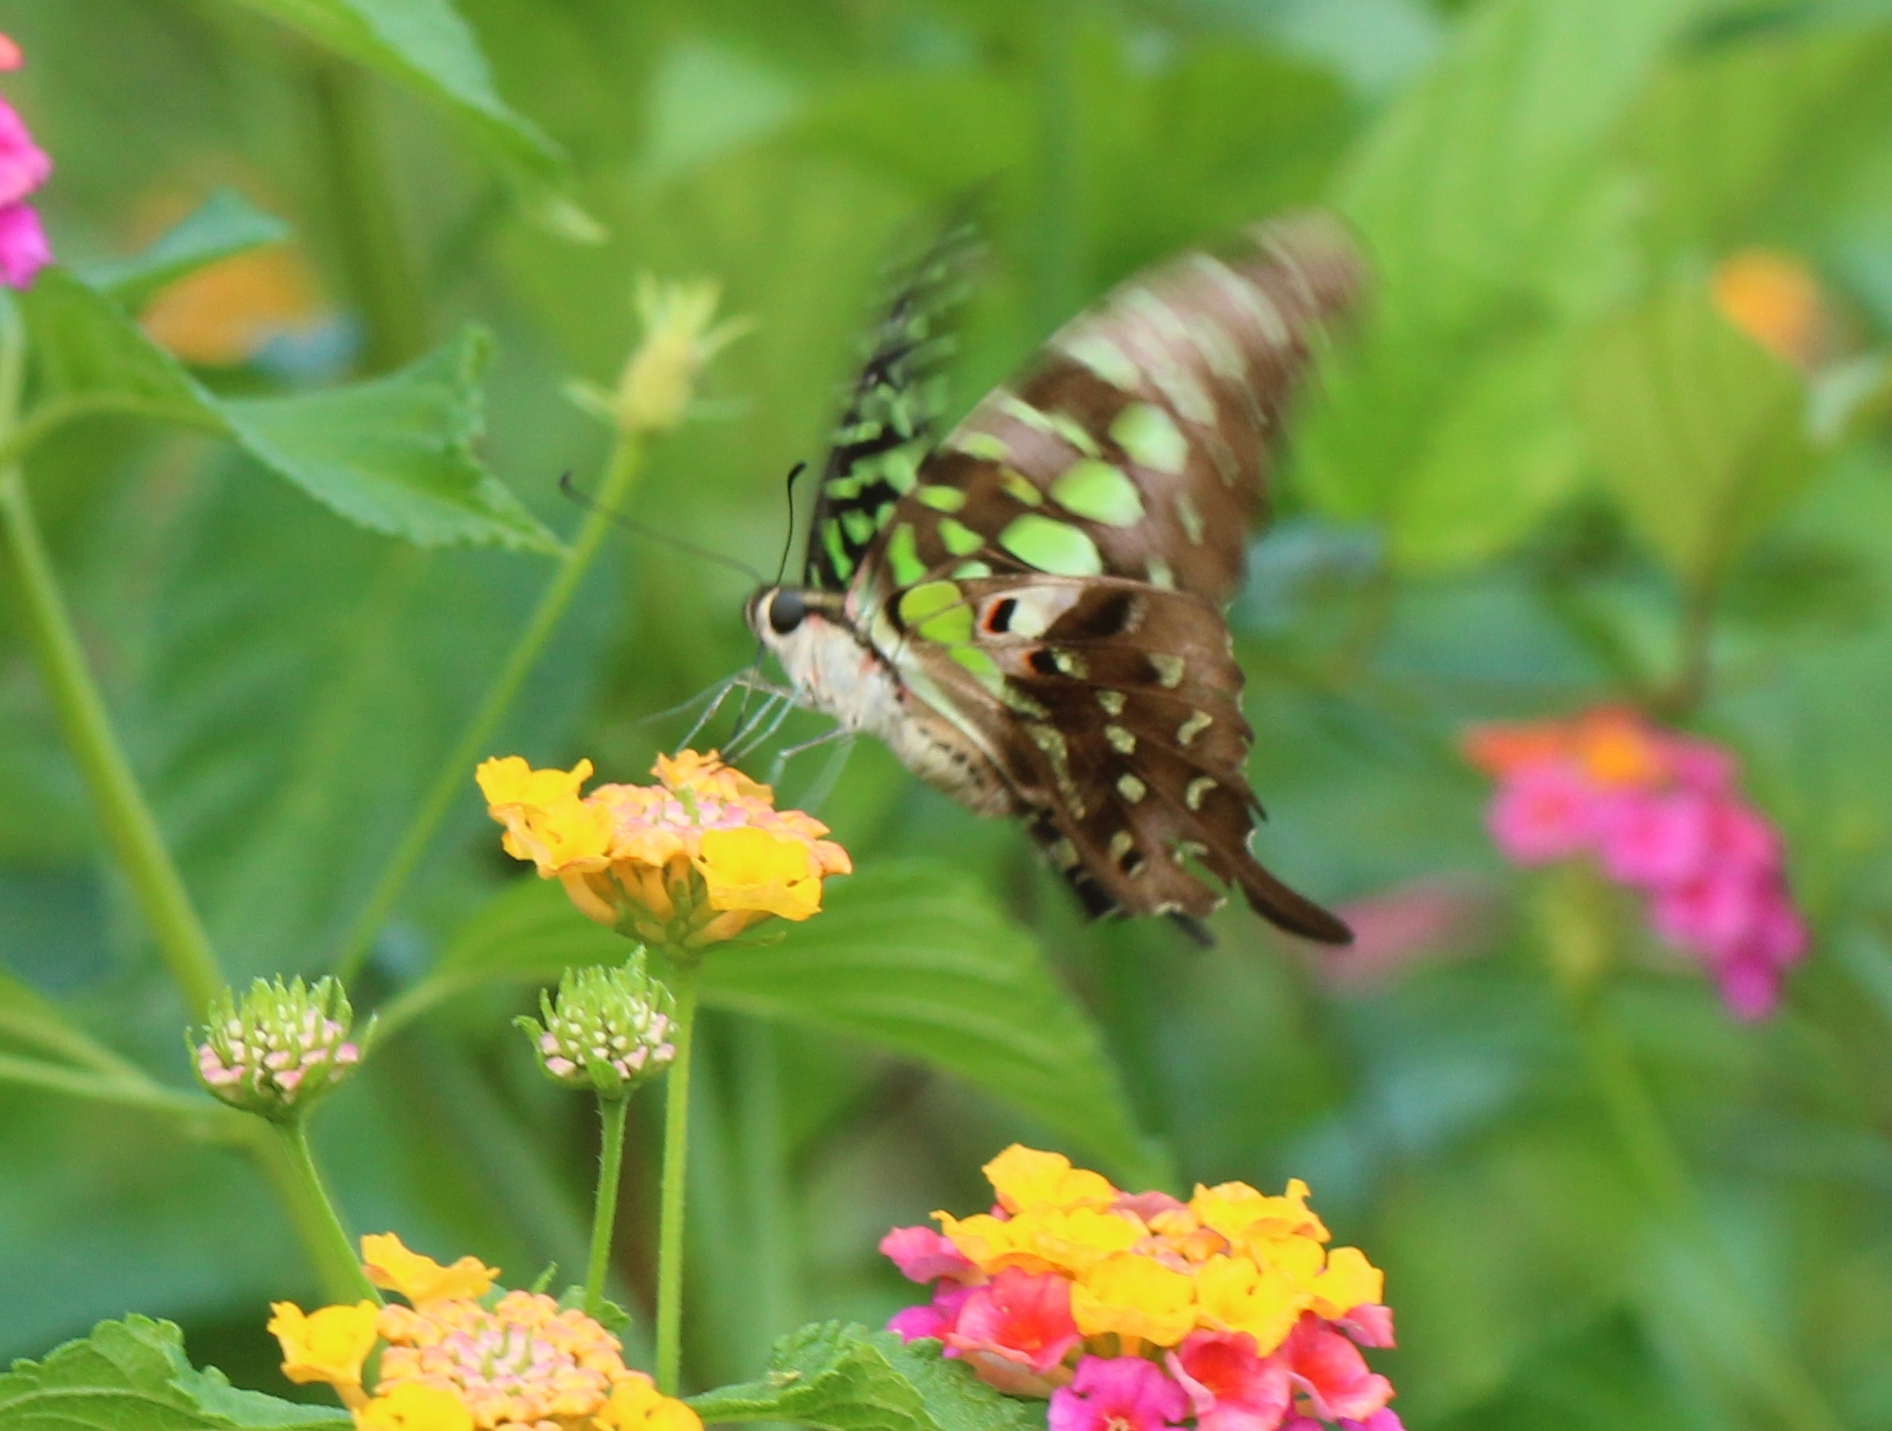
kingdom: Animalia
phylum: Arthropoda
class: Insecta
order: Lepidoptera
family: Papilionidae
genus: Graphium
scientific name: Graphium agamemnon
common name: Tailed jay
